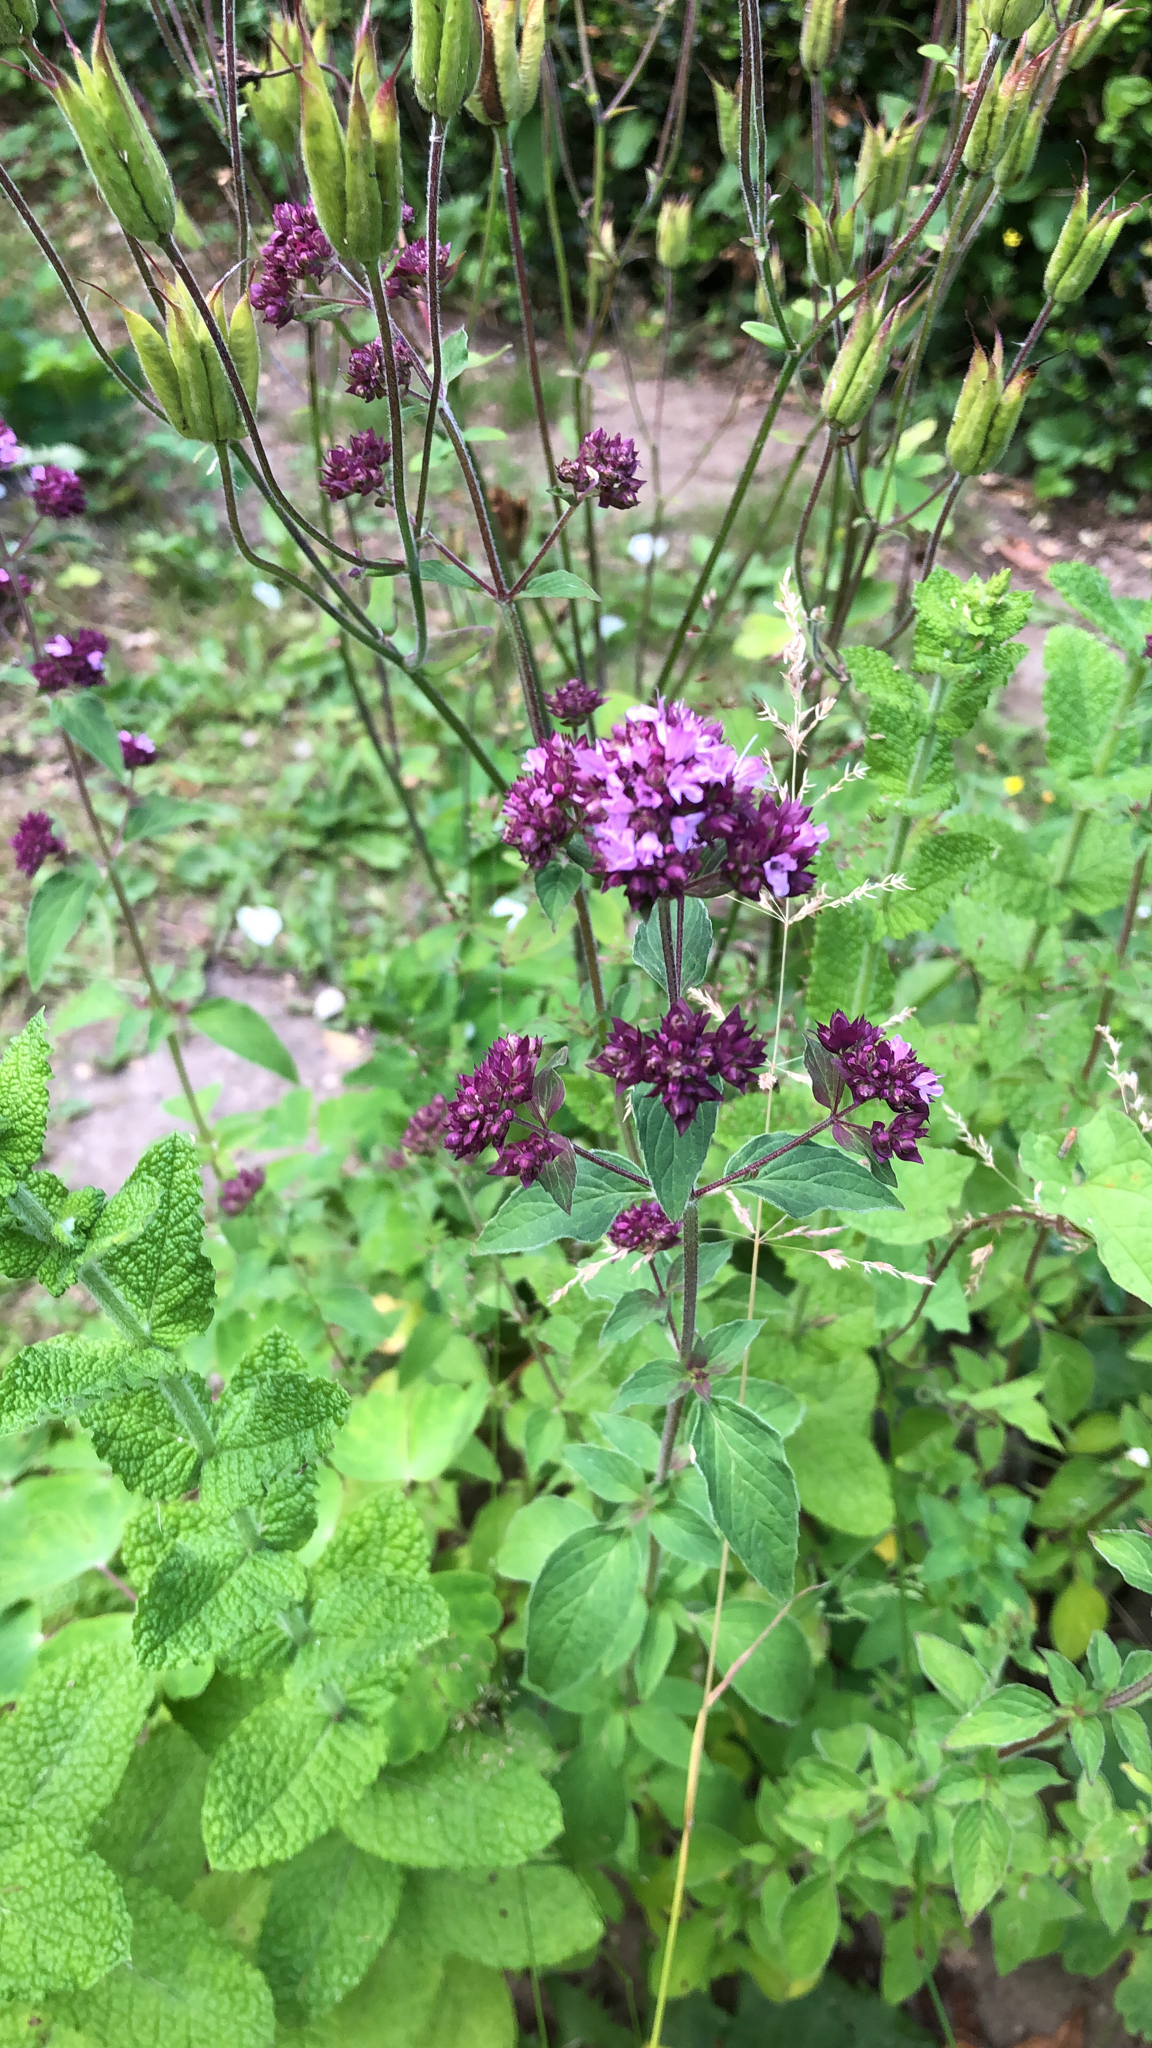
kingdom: Plantae
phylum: Tracheophyta
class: Magnoliopsida
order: Lamiales
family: Lamiaceae
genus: Origanum
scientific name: Origanum vulgare
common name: Wild marjoram
